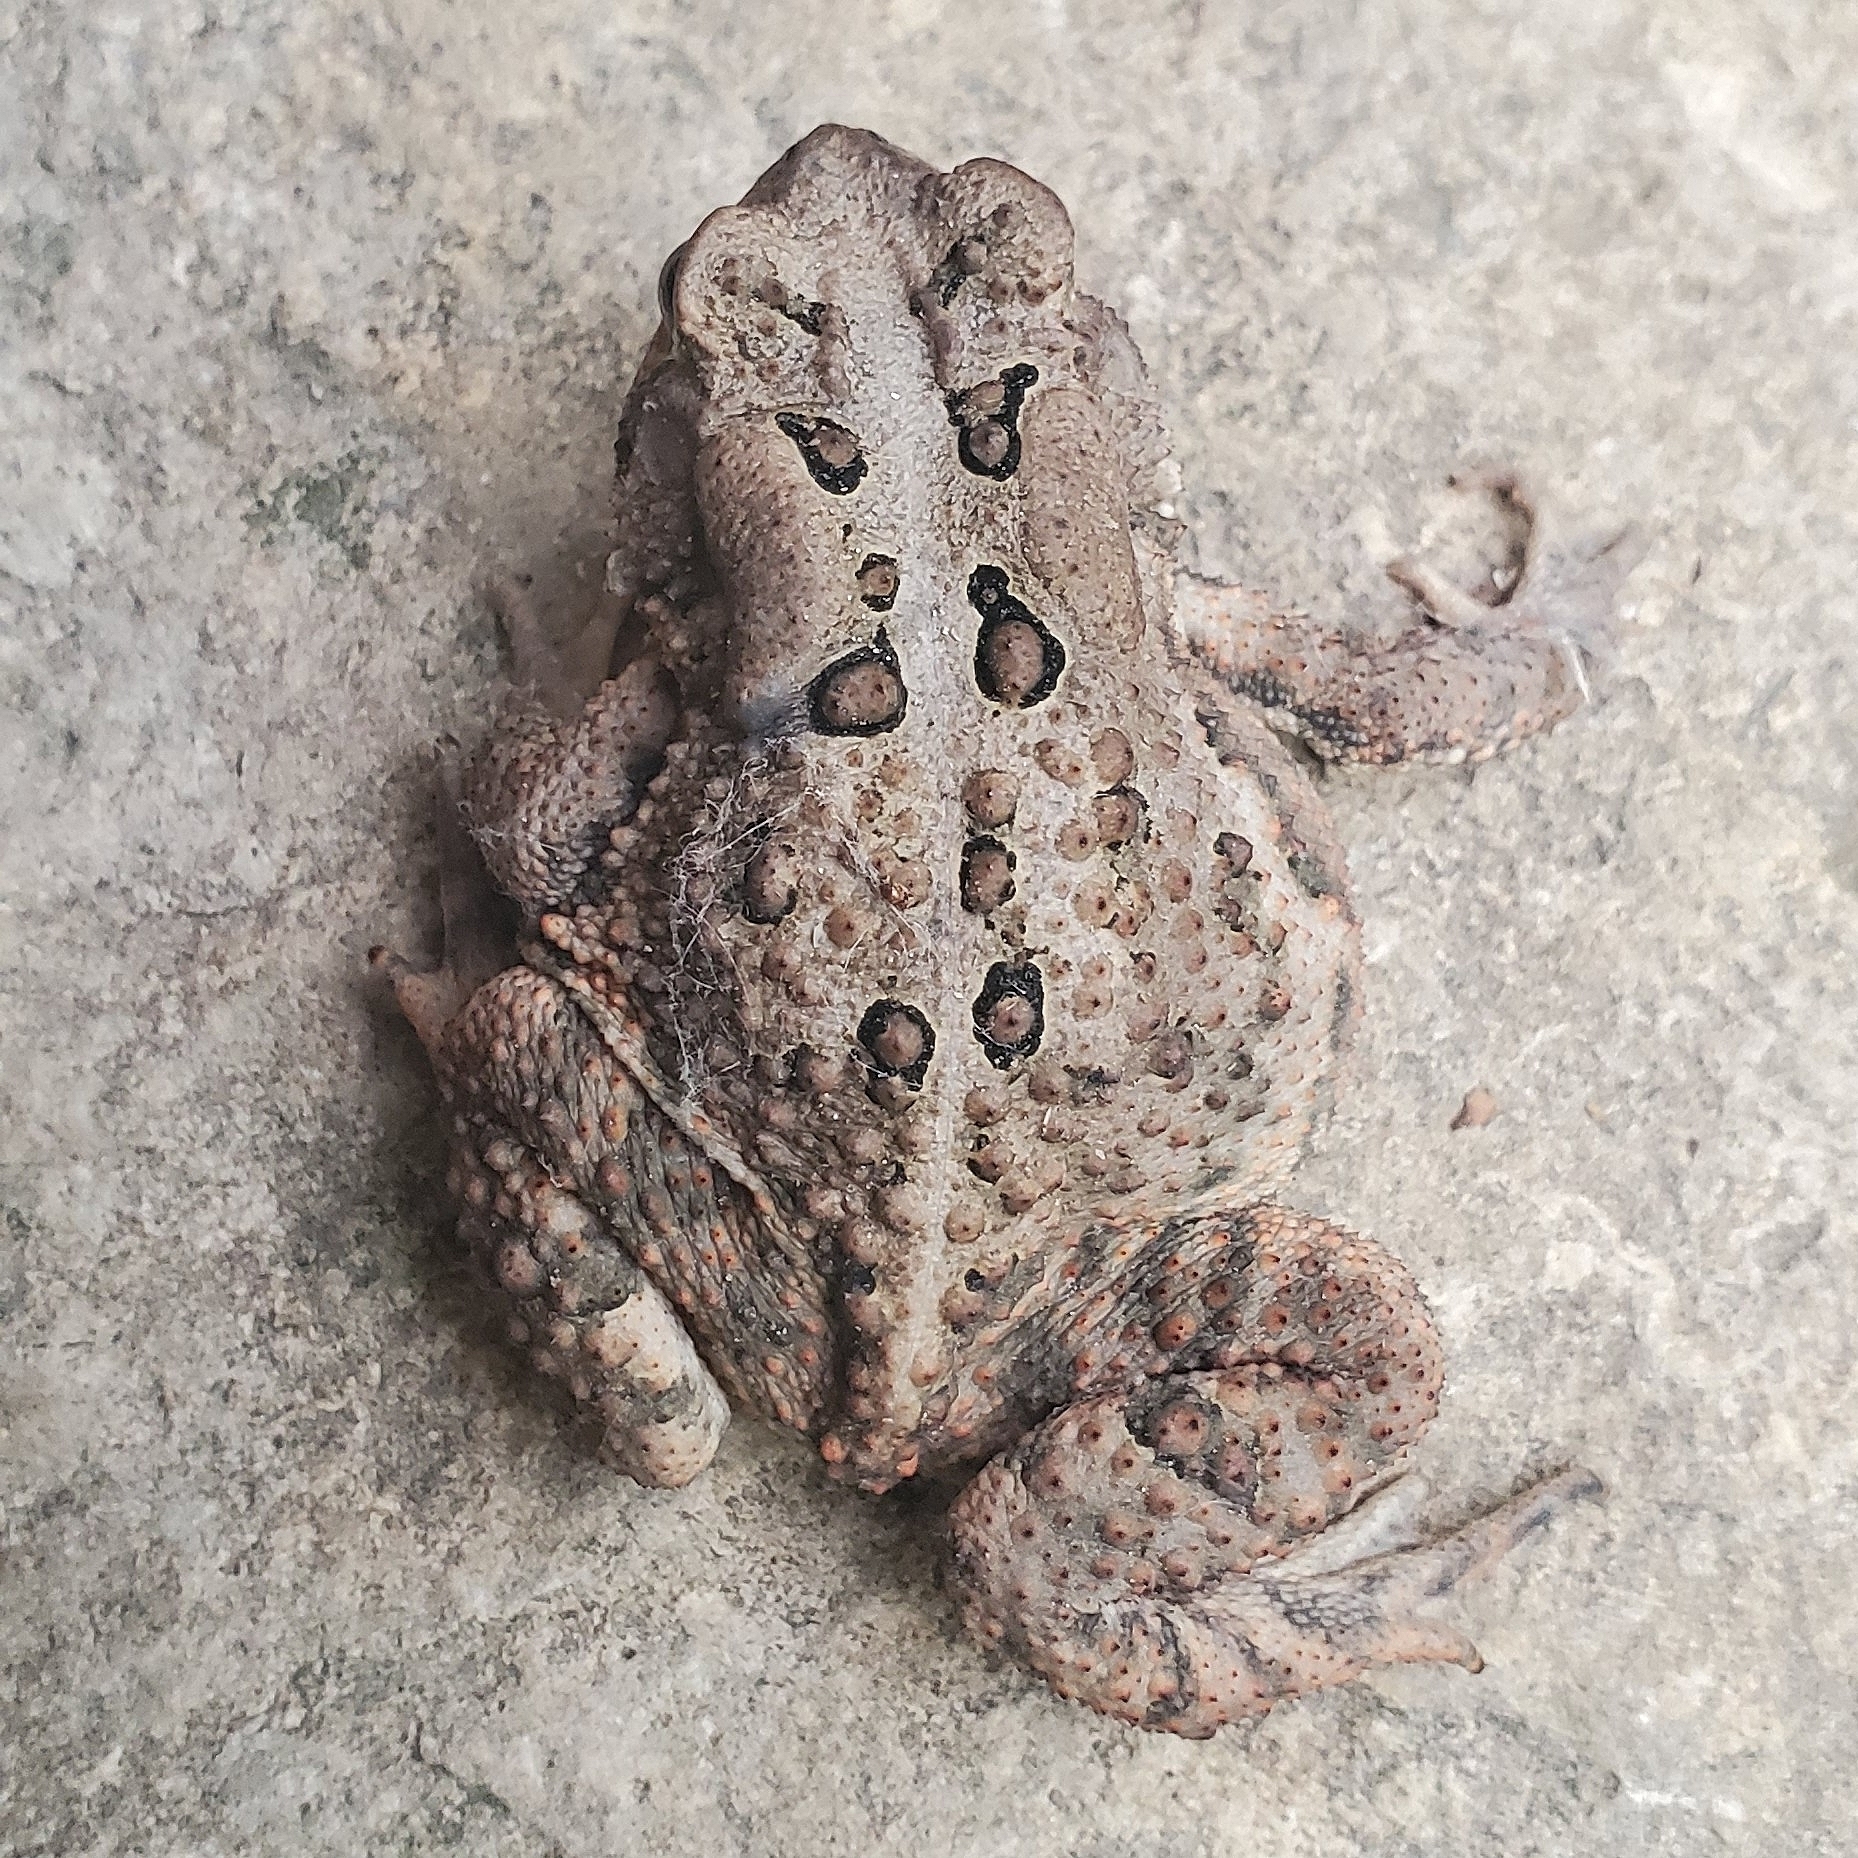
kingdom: Animalia
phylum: Chordata
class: Amphibia
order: Anura
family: Bufonidae
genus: Anaxyrus
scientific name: Anaxyrus americanus
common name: American toad
